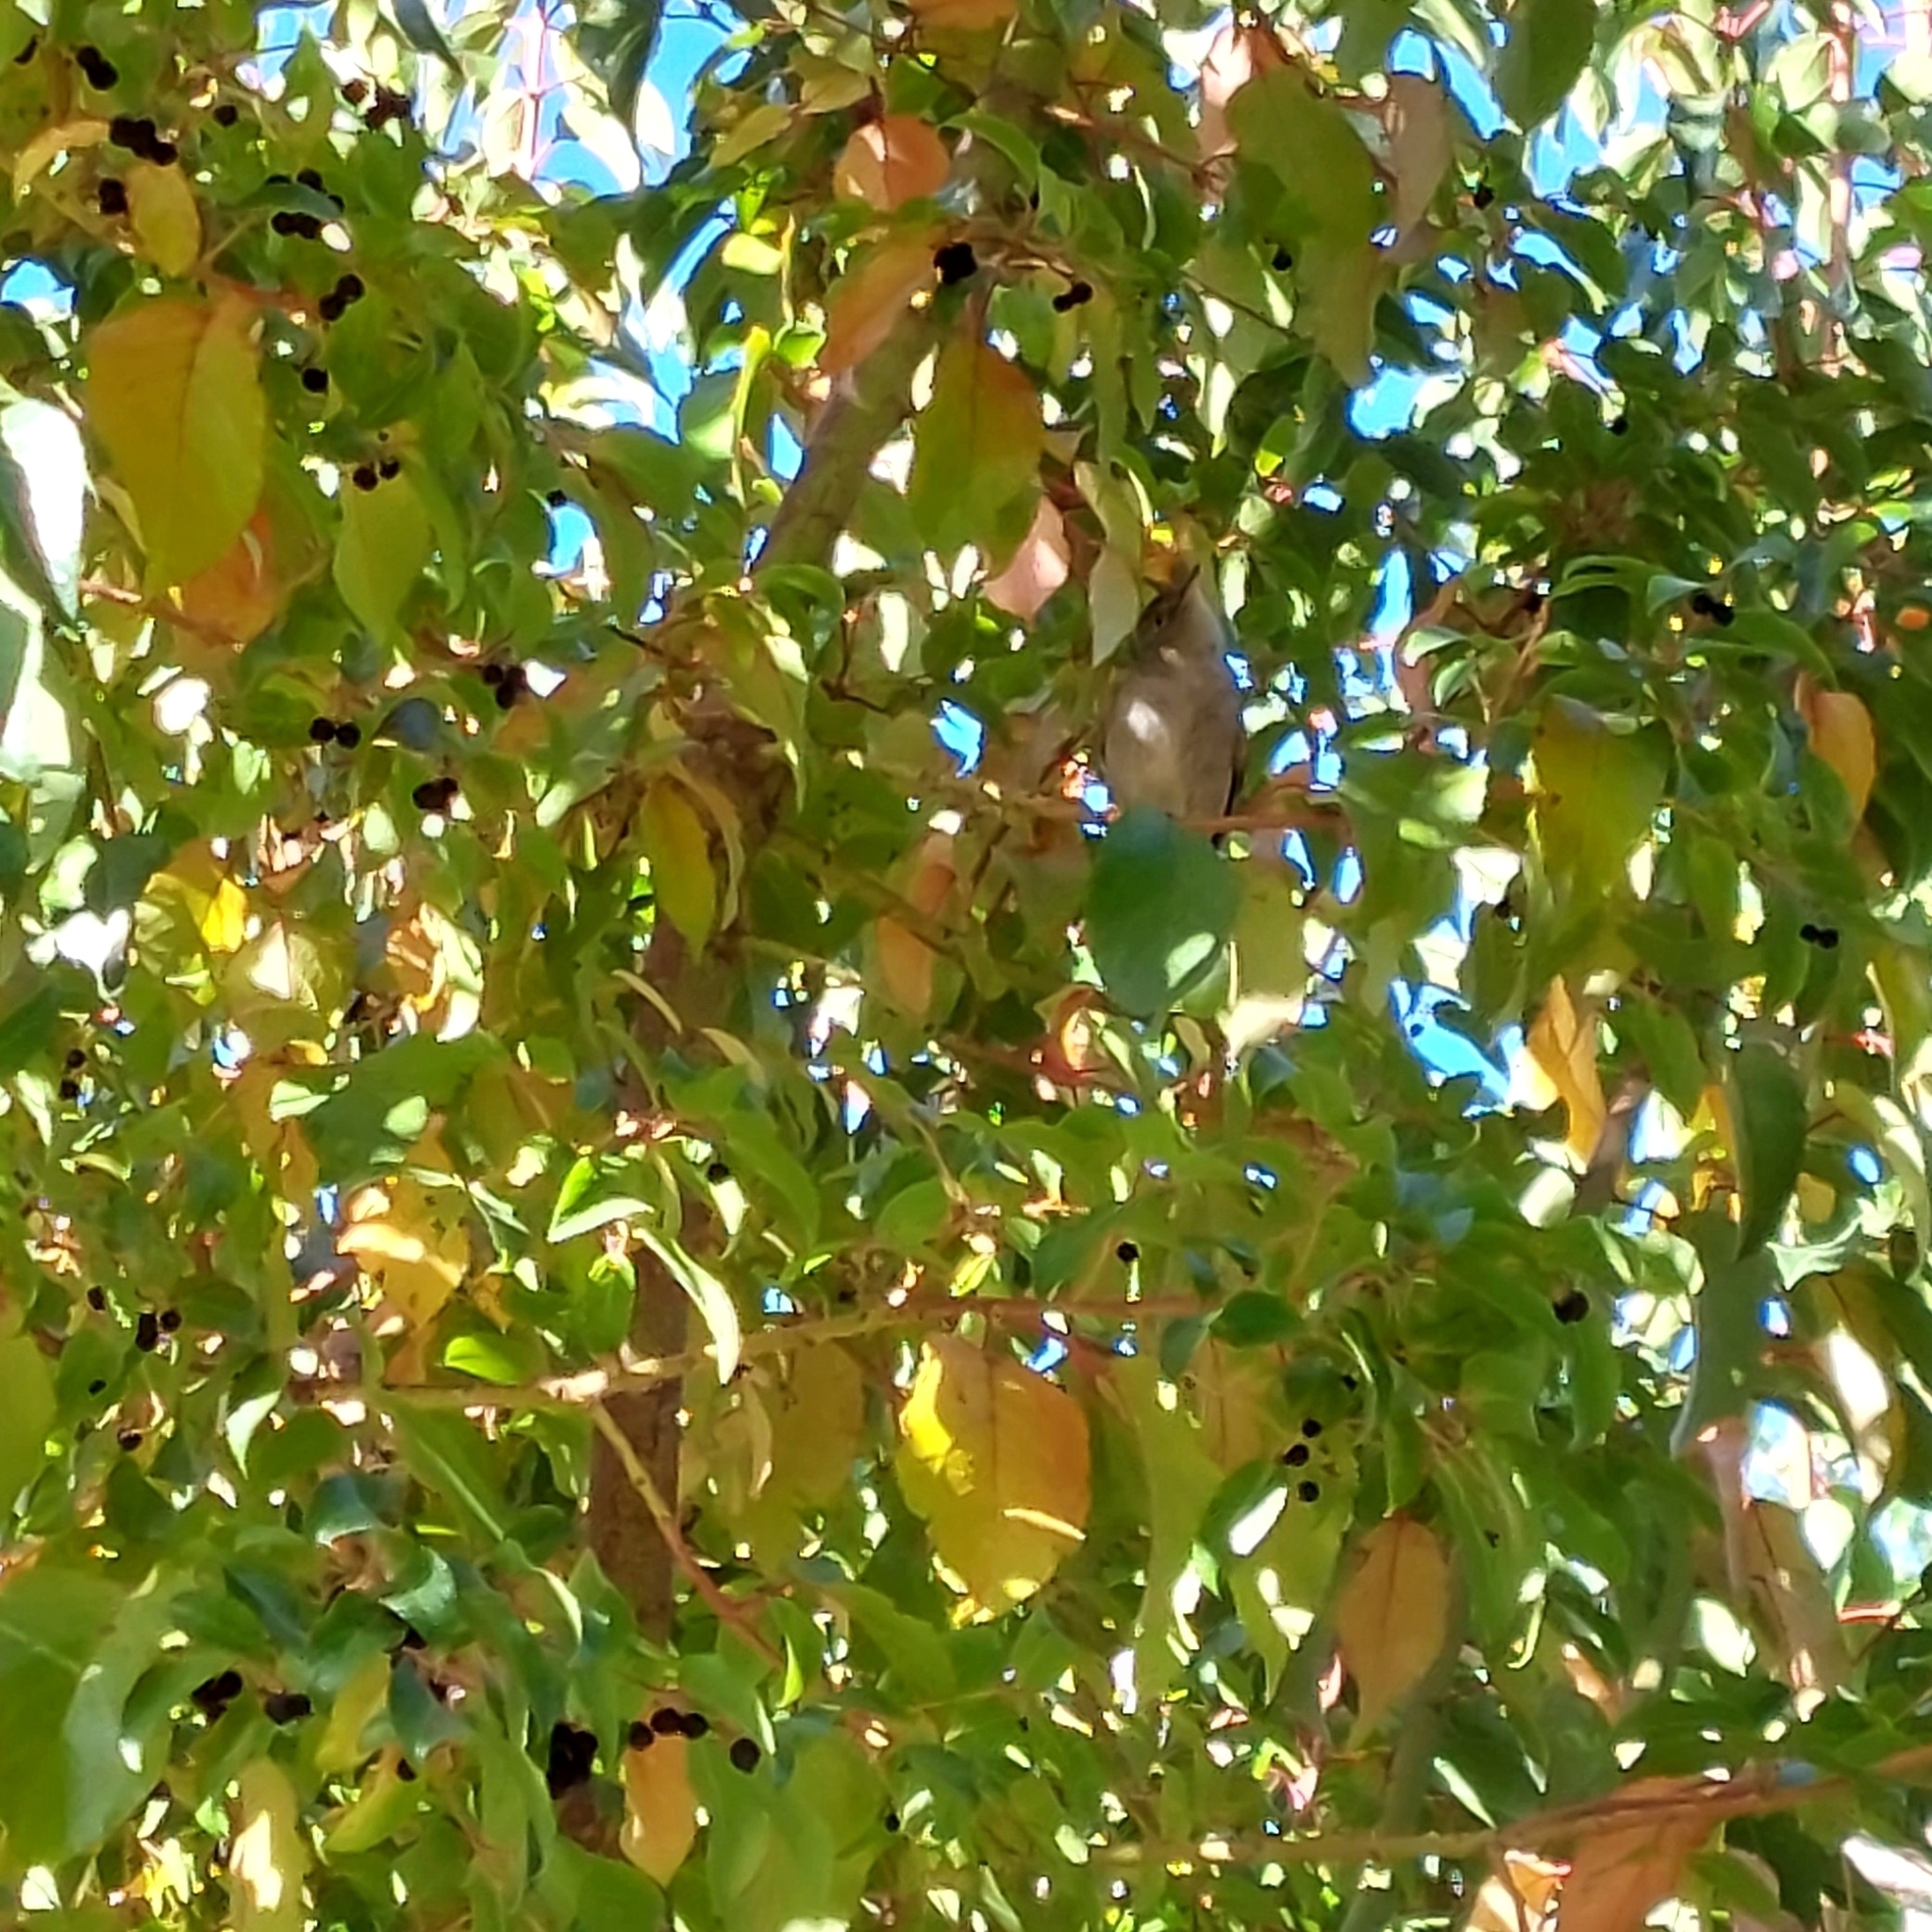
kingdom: Animalia
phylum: Chordata
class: Aves
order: Passeriformes
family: Tyrannidae
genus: Elaenia
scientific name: Elaenia albiceps
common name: White-crested elaenia
